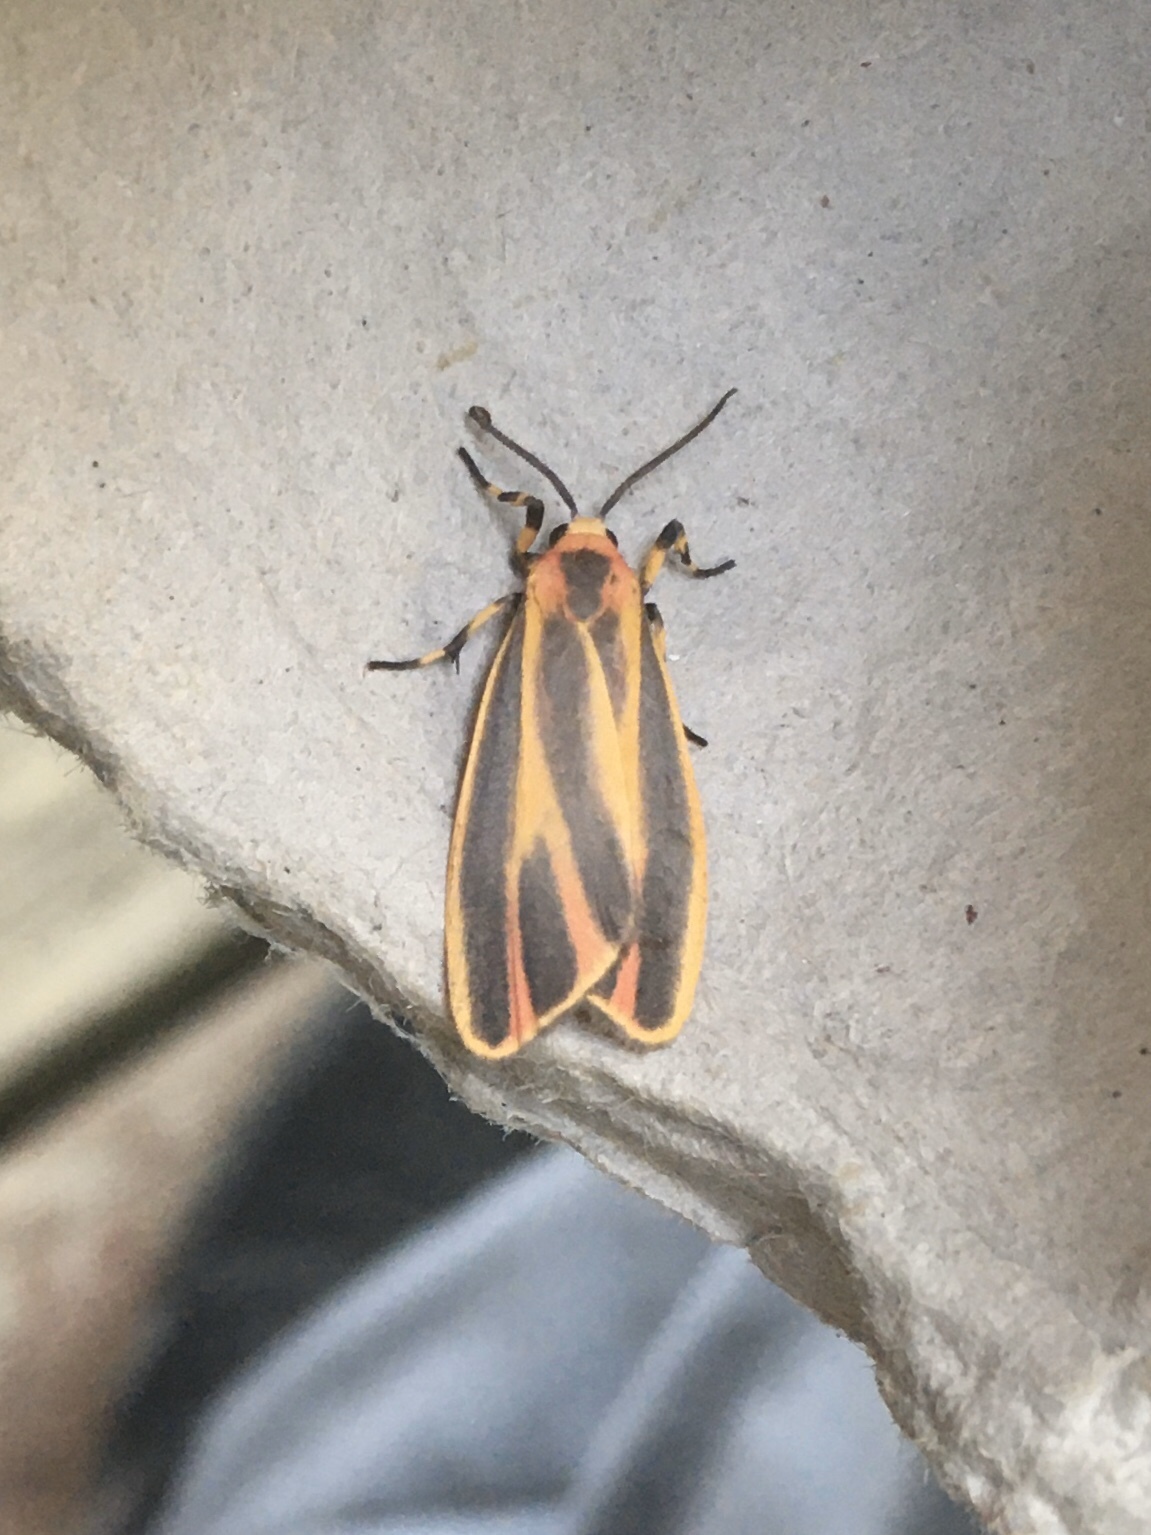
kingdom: Animalia
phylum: Arthropoda
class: Insecta
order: Lepidoptera
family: Erebidae
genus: Hypoprepia
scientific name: Hypoprepia fucosa
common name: Painted lichen moth
